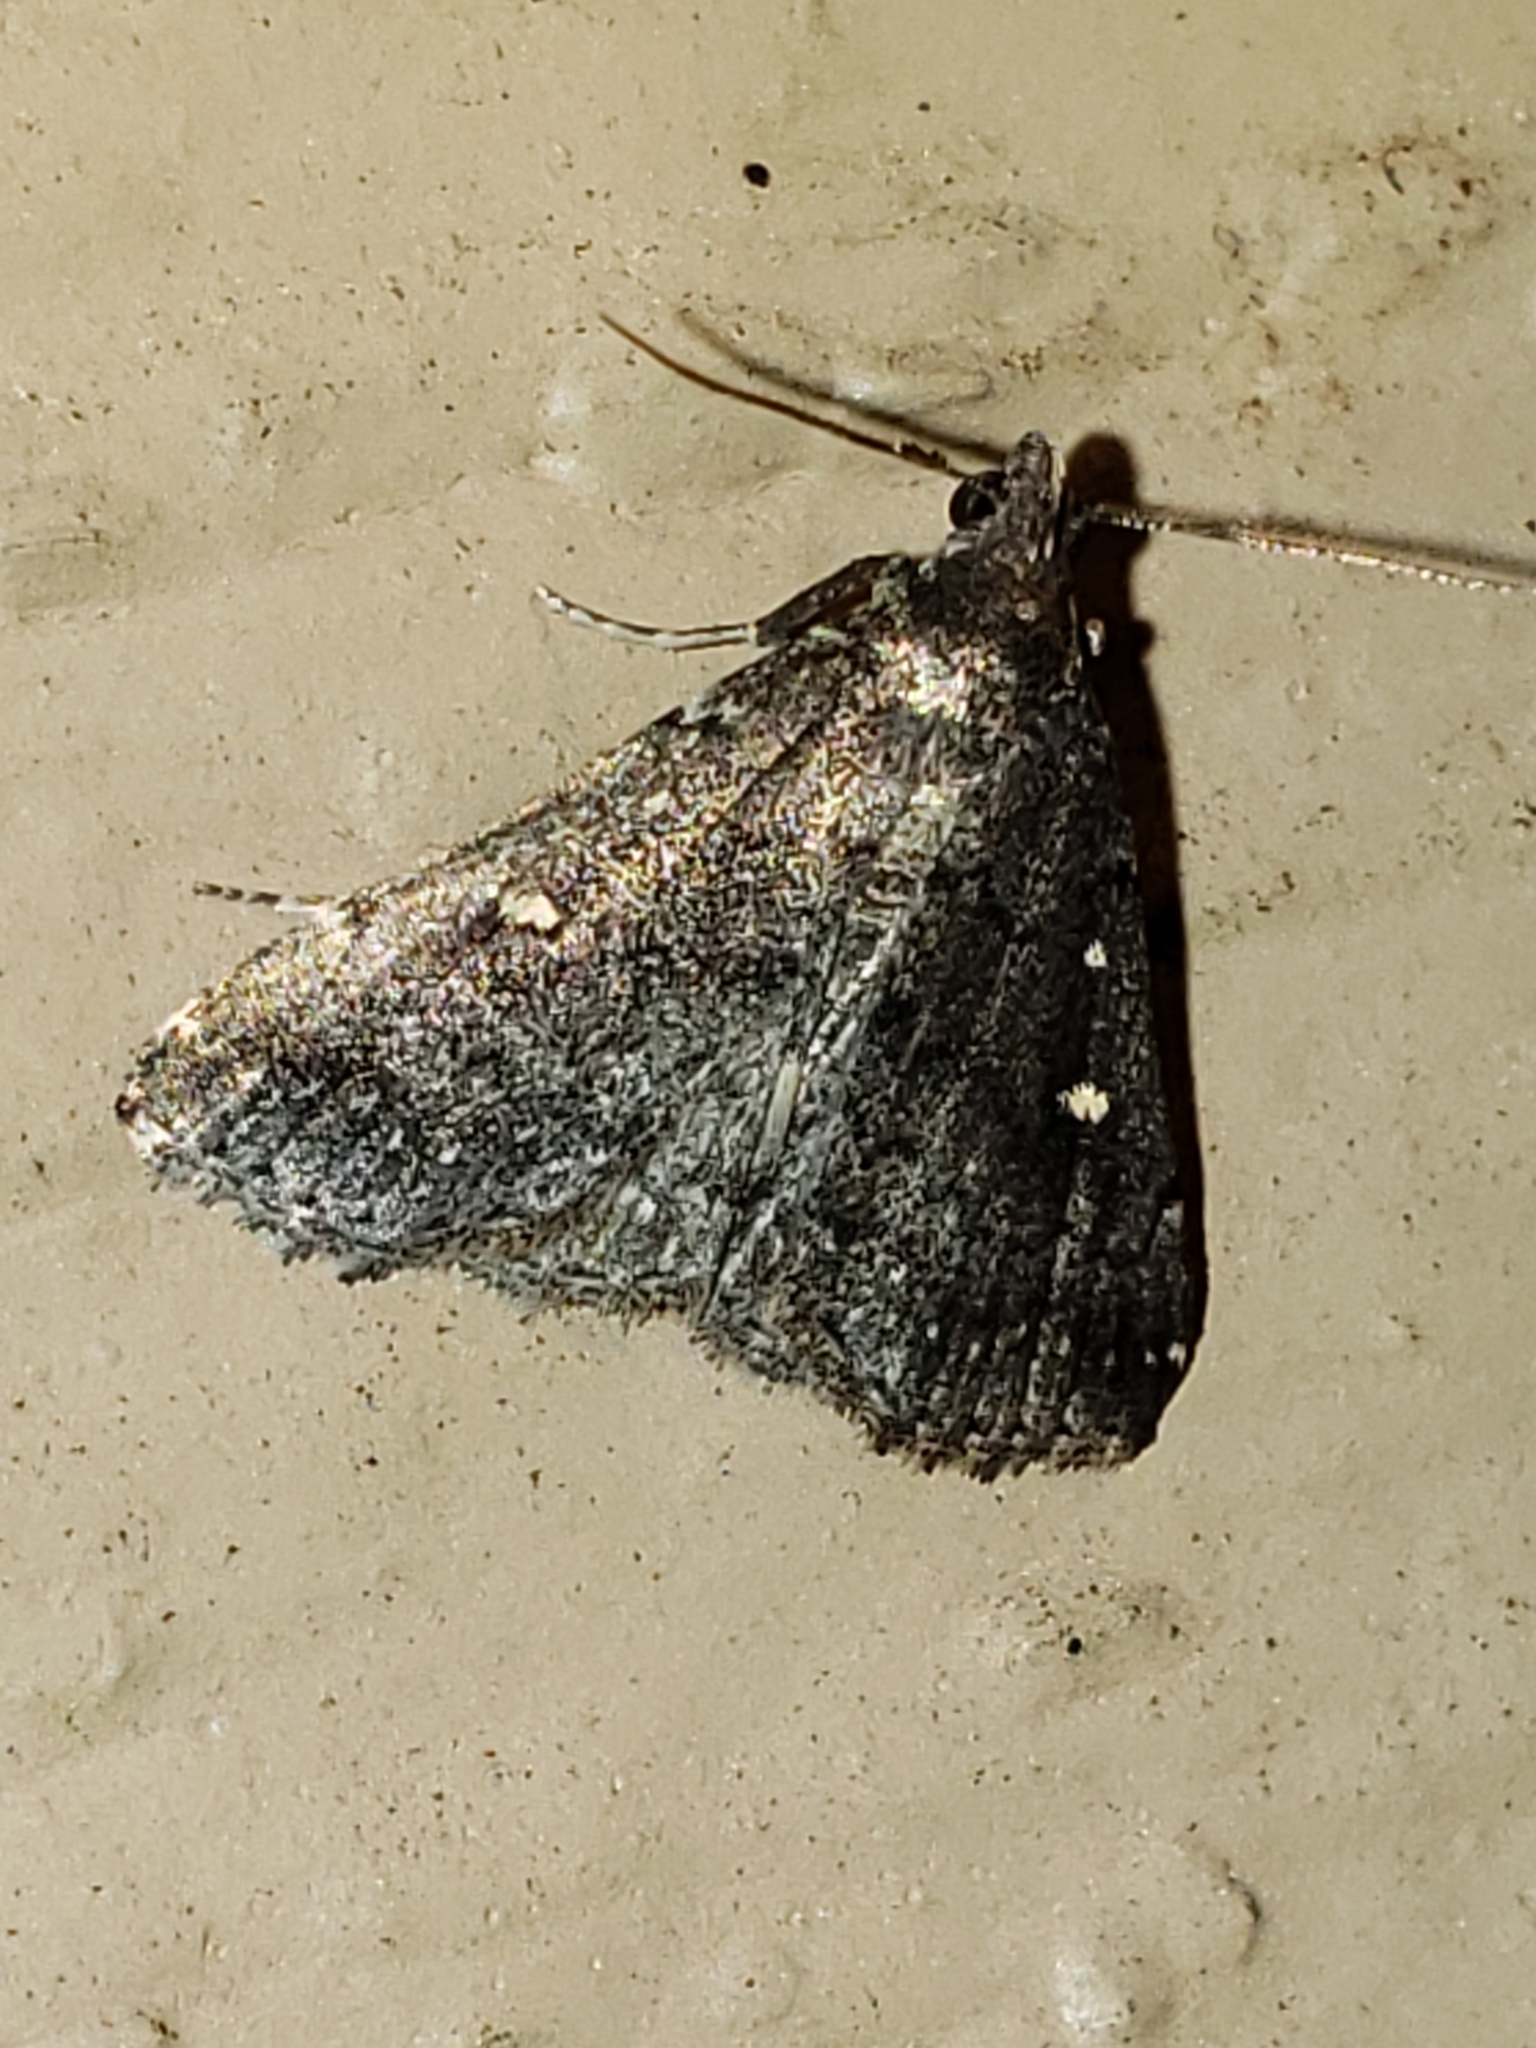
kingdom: Animalia
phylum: Arthropoda
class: Insecta
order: Lepidoptera
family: Erebidae
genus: Tetanolita
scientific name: Tetanolita mynesalis
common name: Smoky tetanolita moth
